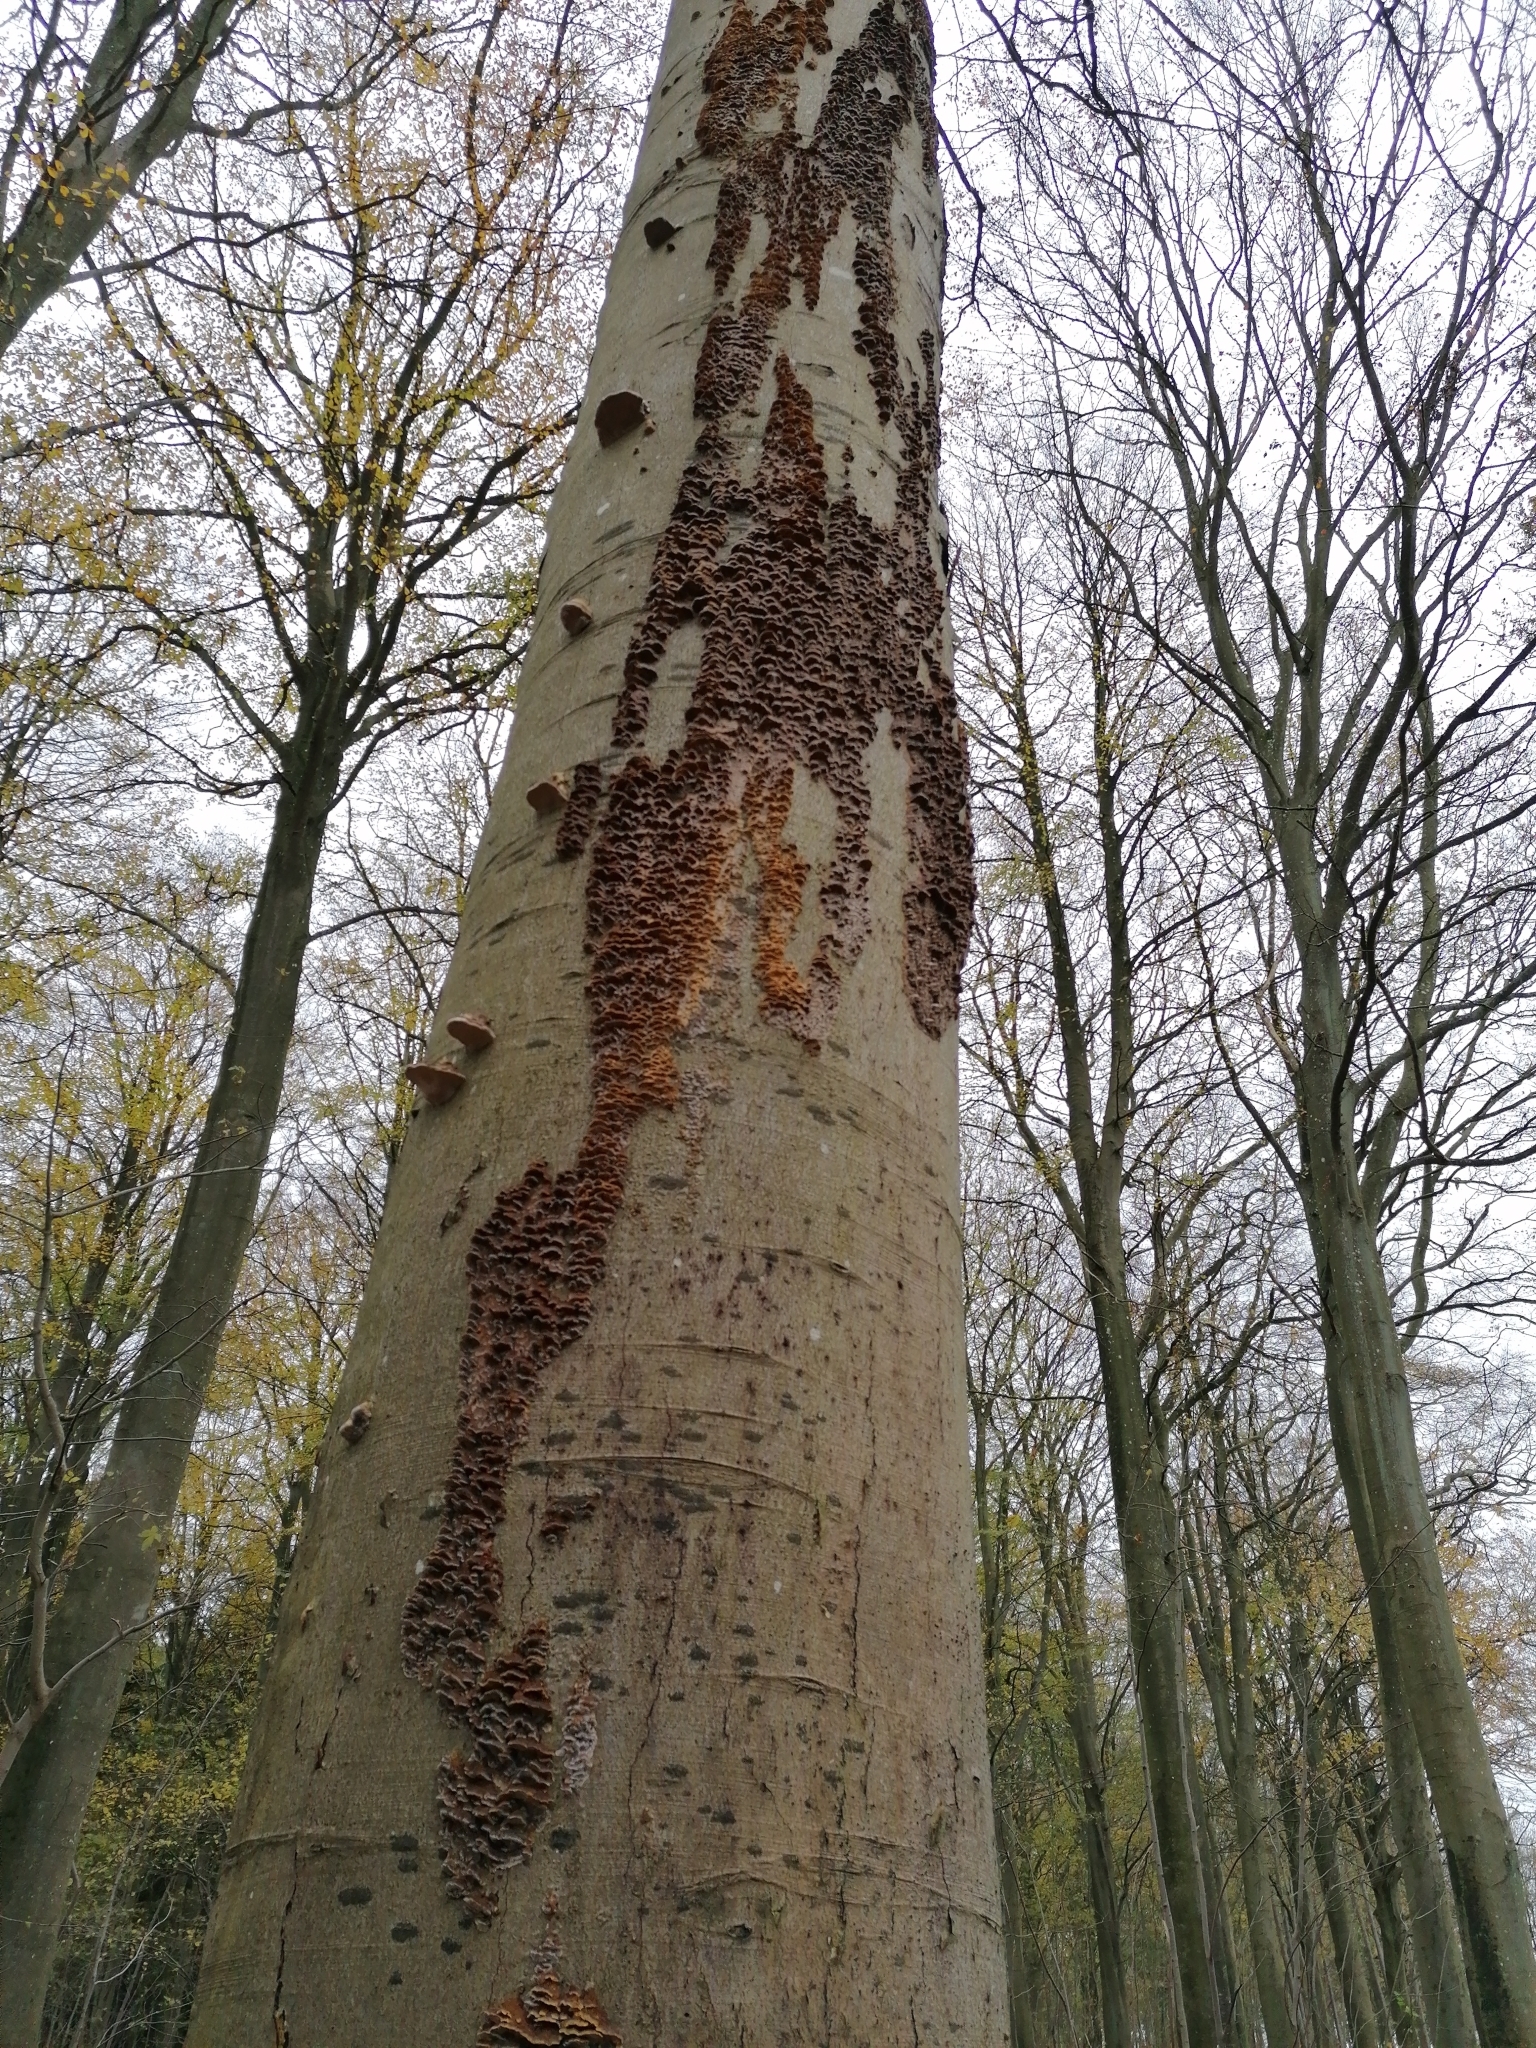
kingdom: Fungi
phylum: Basidiomycota
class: Agaricomycetes
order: Hymenochaetales
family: Hymenochaetaceae
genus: Mensularia
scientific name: Mensularia nodulosa
